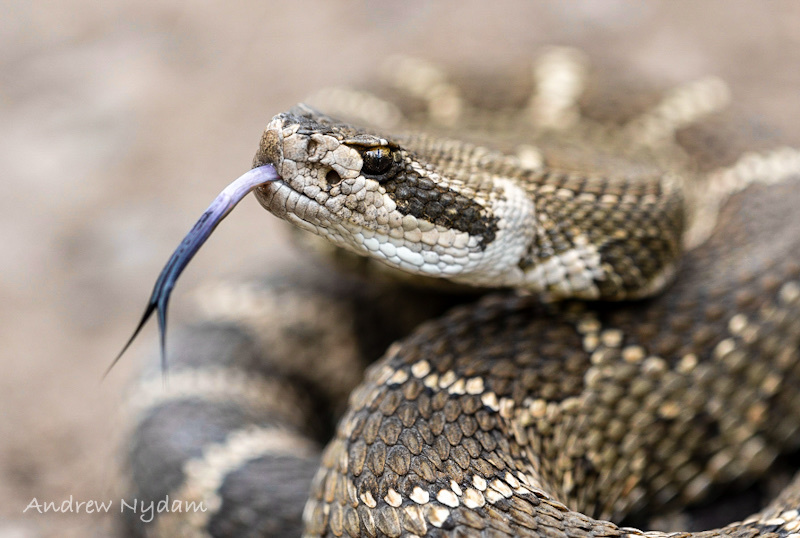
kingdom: Animalia
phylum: Chordata
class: Squamata
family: Viperidae
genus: Crotalus
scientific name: Crotalus oreganus
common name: Abyssus
